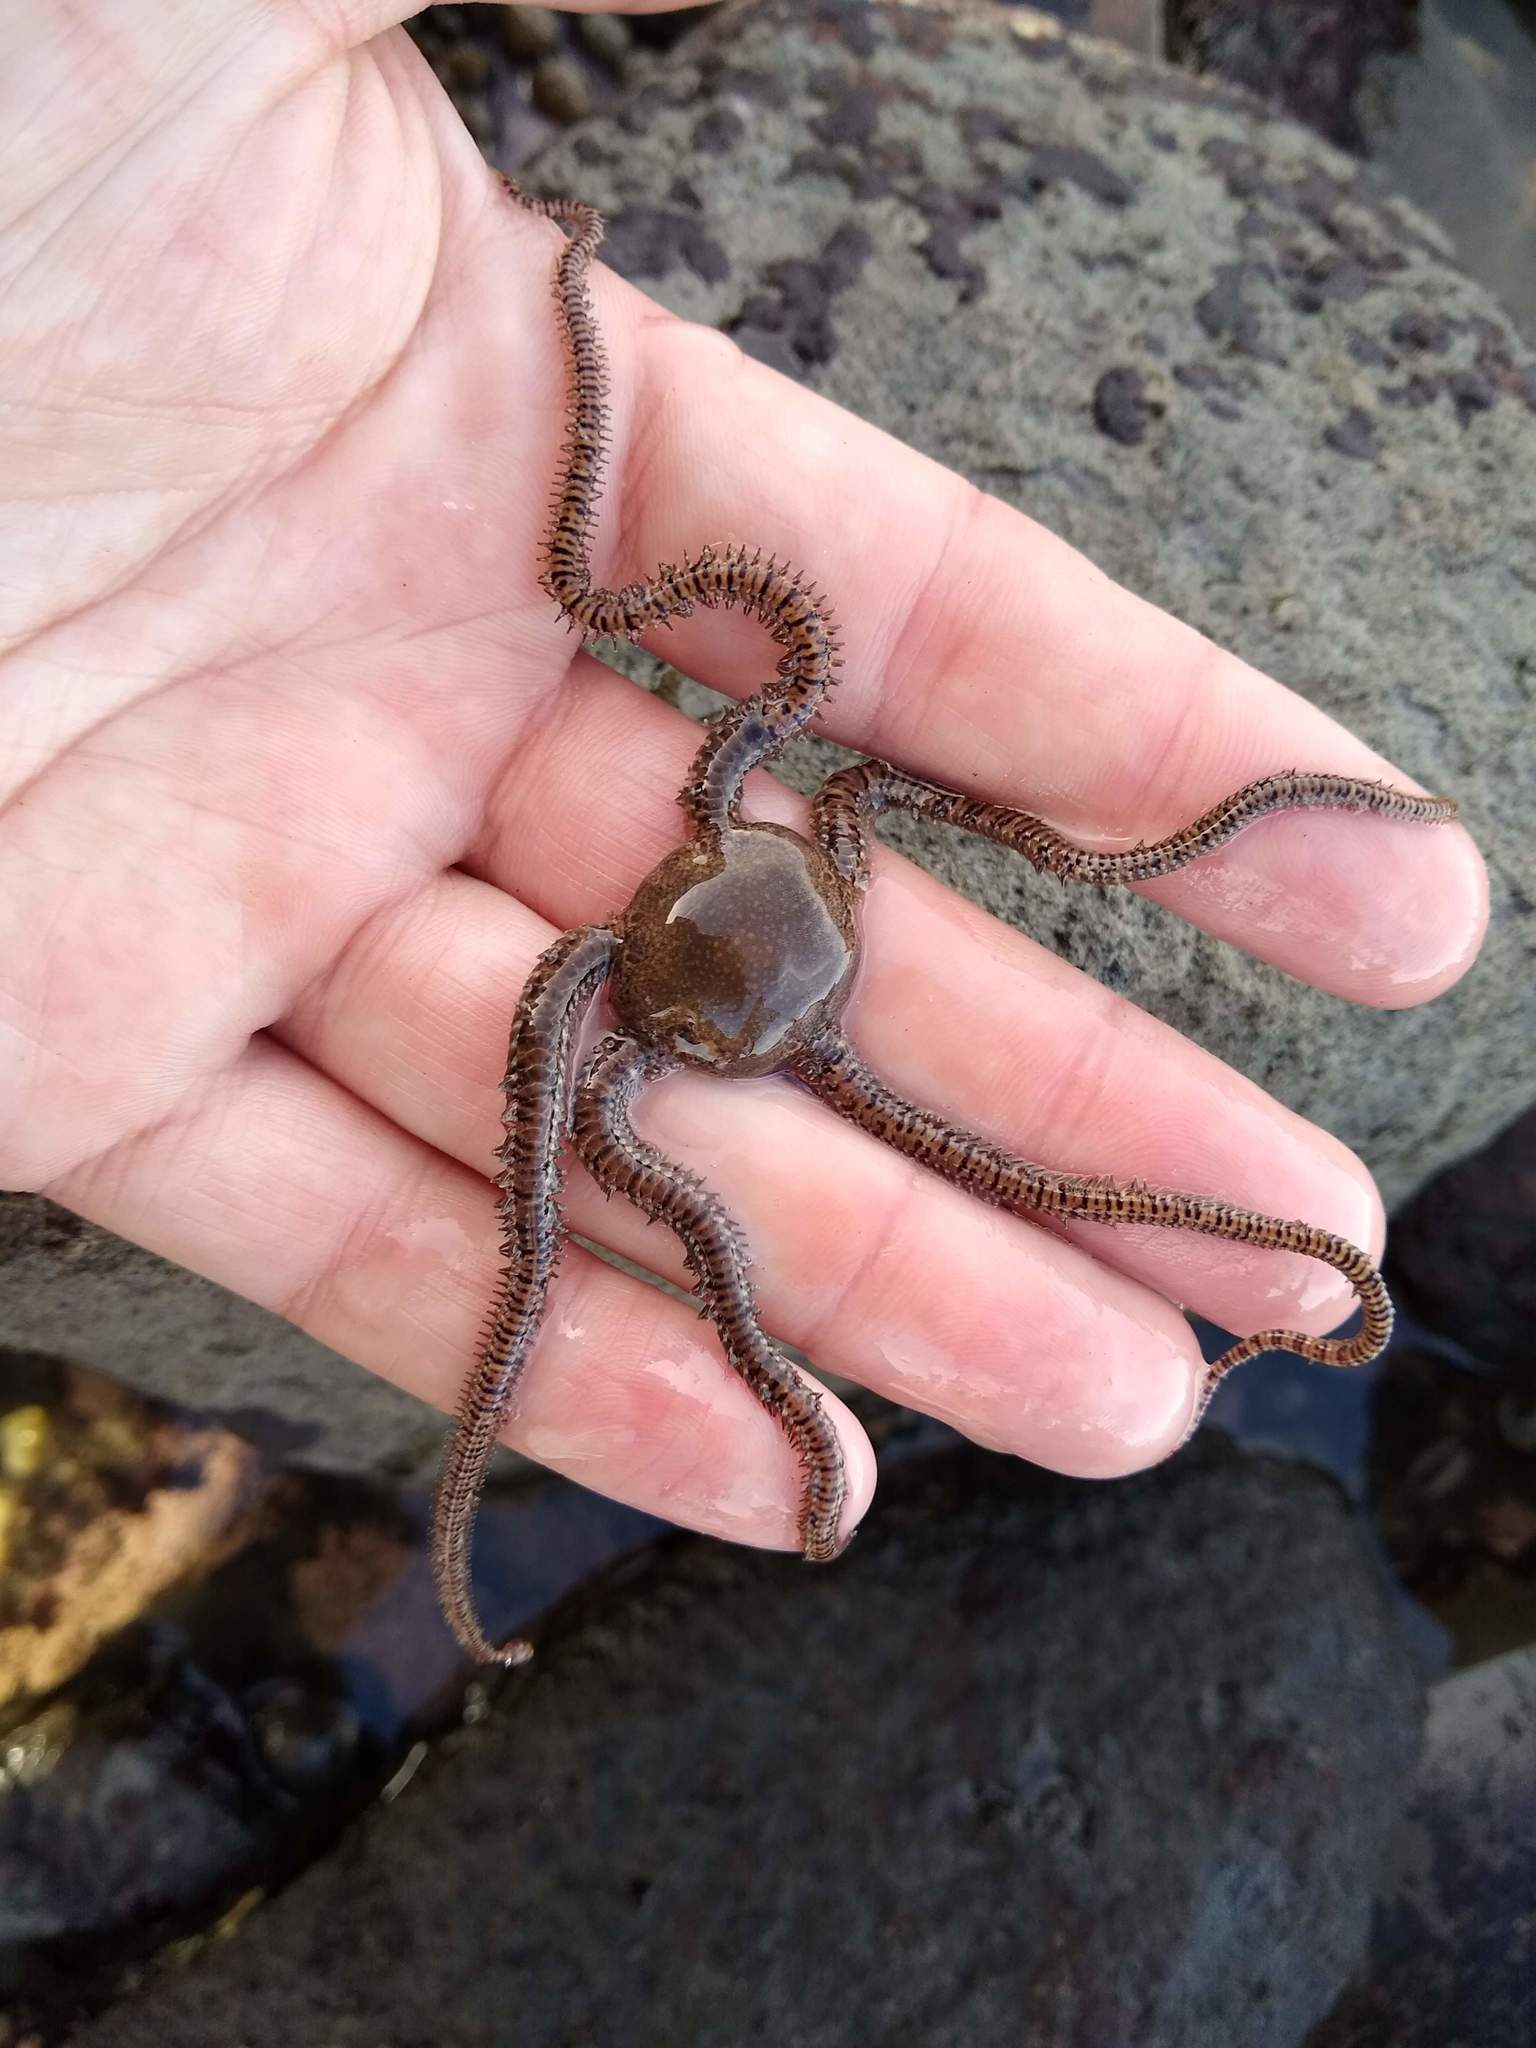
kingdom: Animalia
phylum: Echinodermata
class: Ophiuroidea
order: Amphilepidida
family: Ophionereididae
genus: Ophionereis
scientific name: Ophionereis fasciata
